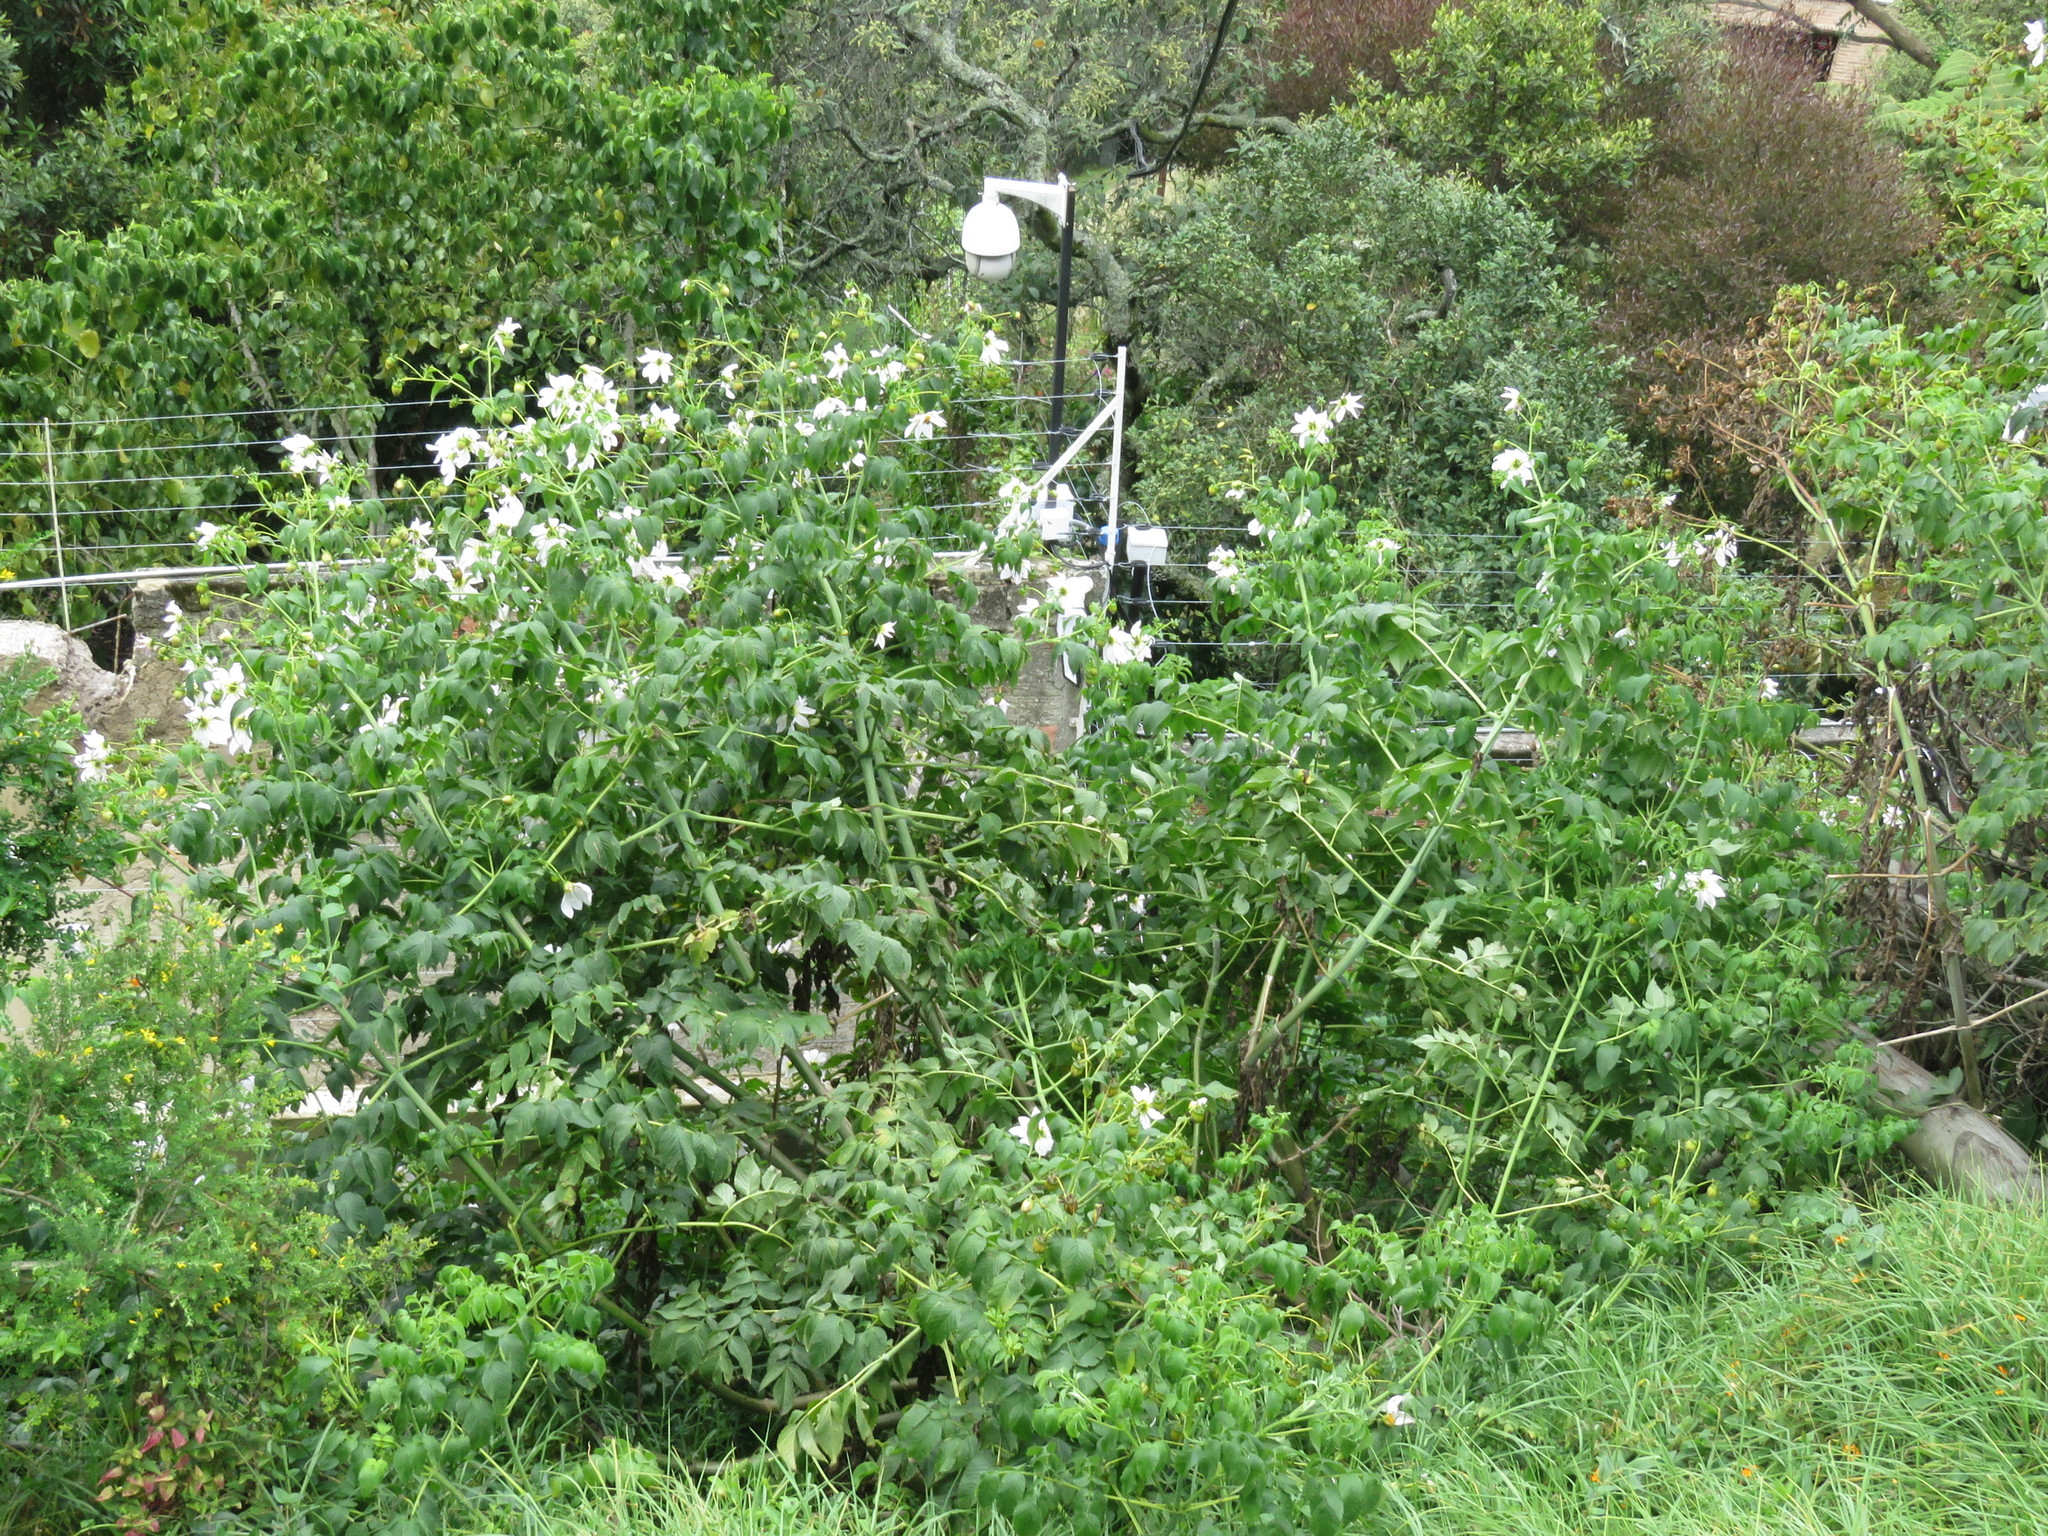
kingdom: Plantae
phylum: Tracheophyta
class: Magnoliopsida
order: Asterales
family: Asteraceae
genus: Dahlia
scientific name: Dahlia imperialis
